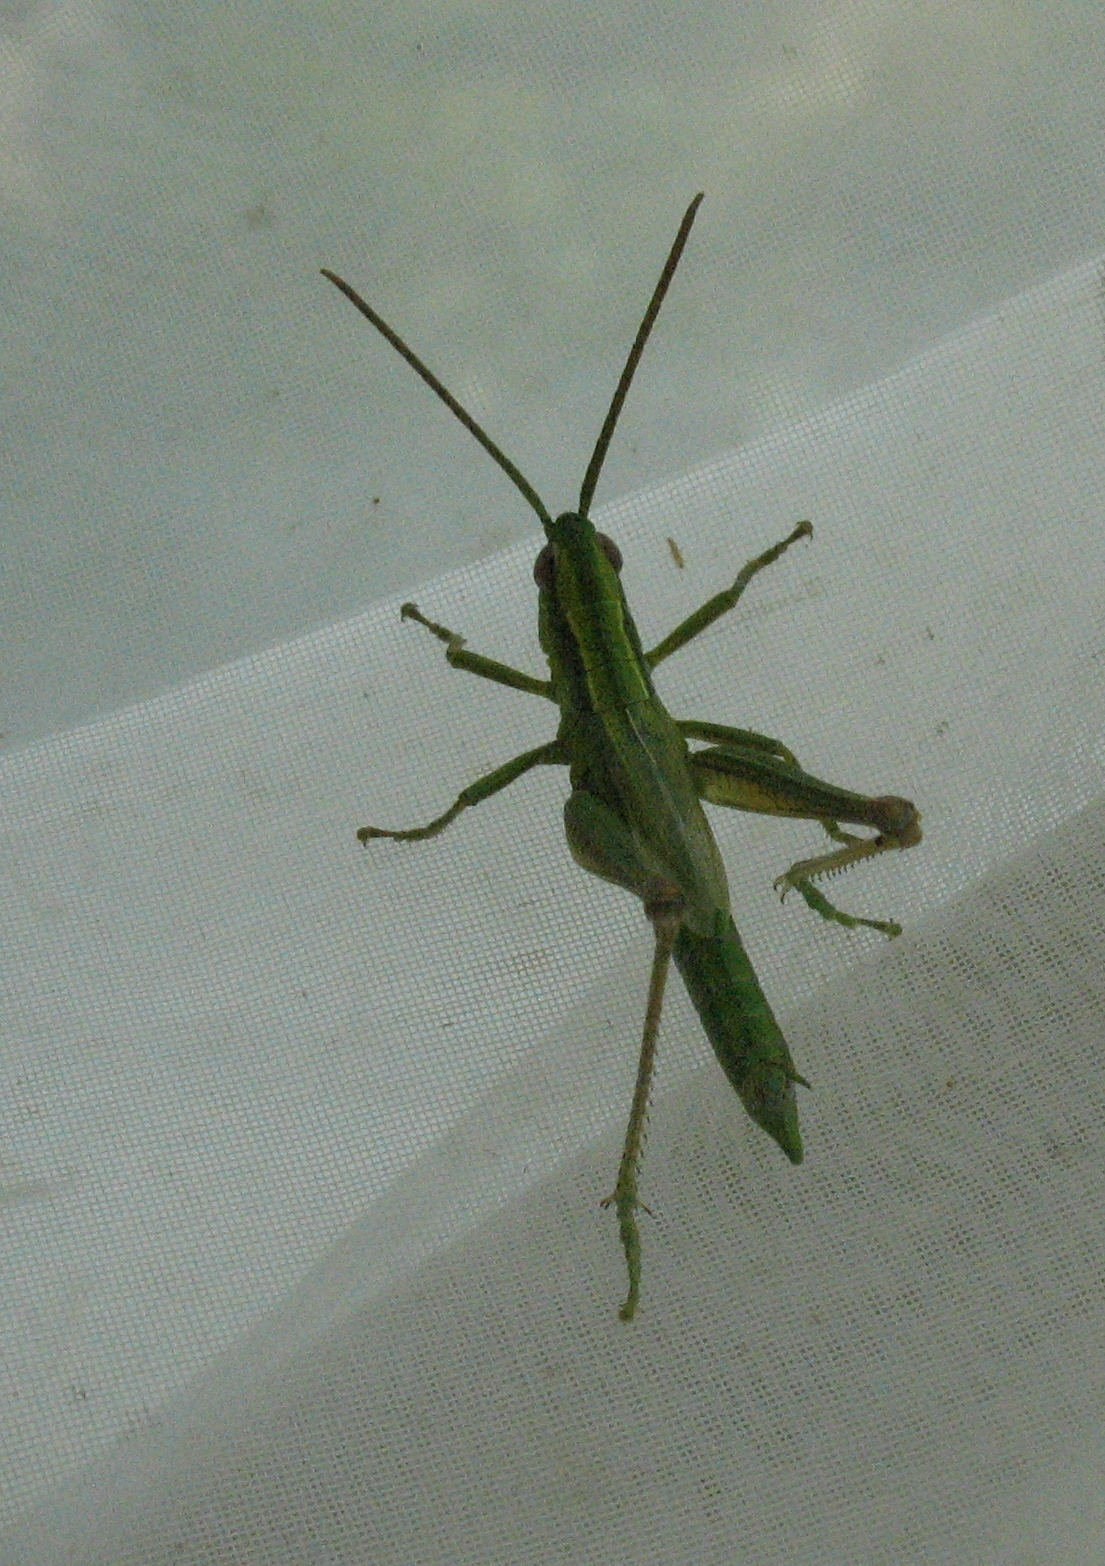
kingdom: Animalia
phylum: Arthropoda
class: Insecta
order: Orthoptera
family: Acrididae
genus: Euthystira
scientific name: Euthystira brachyptera
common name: Small gold grasshopper
